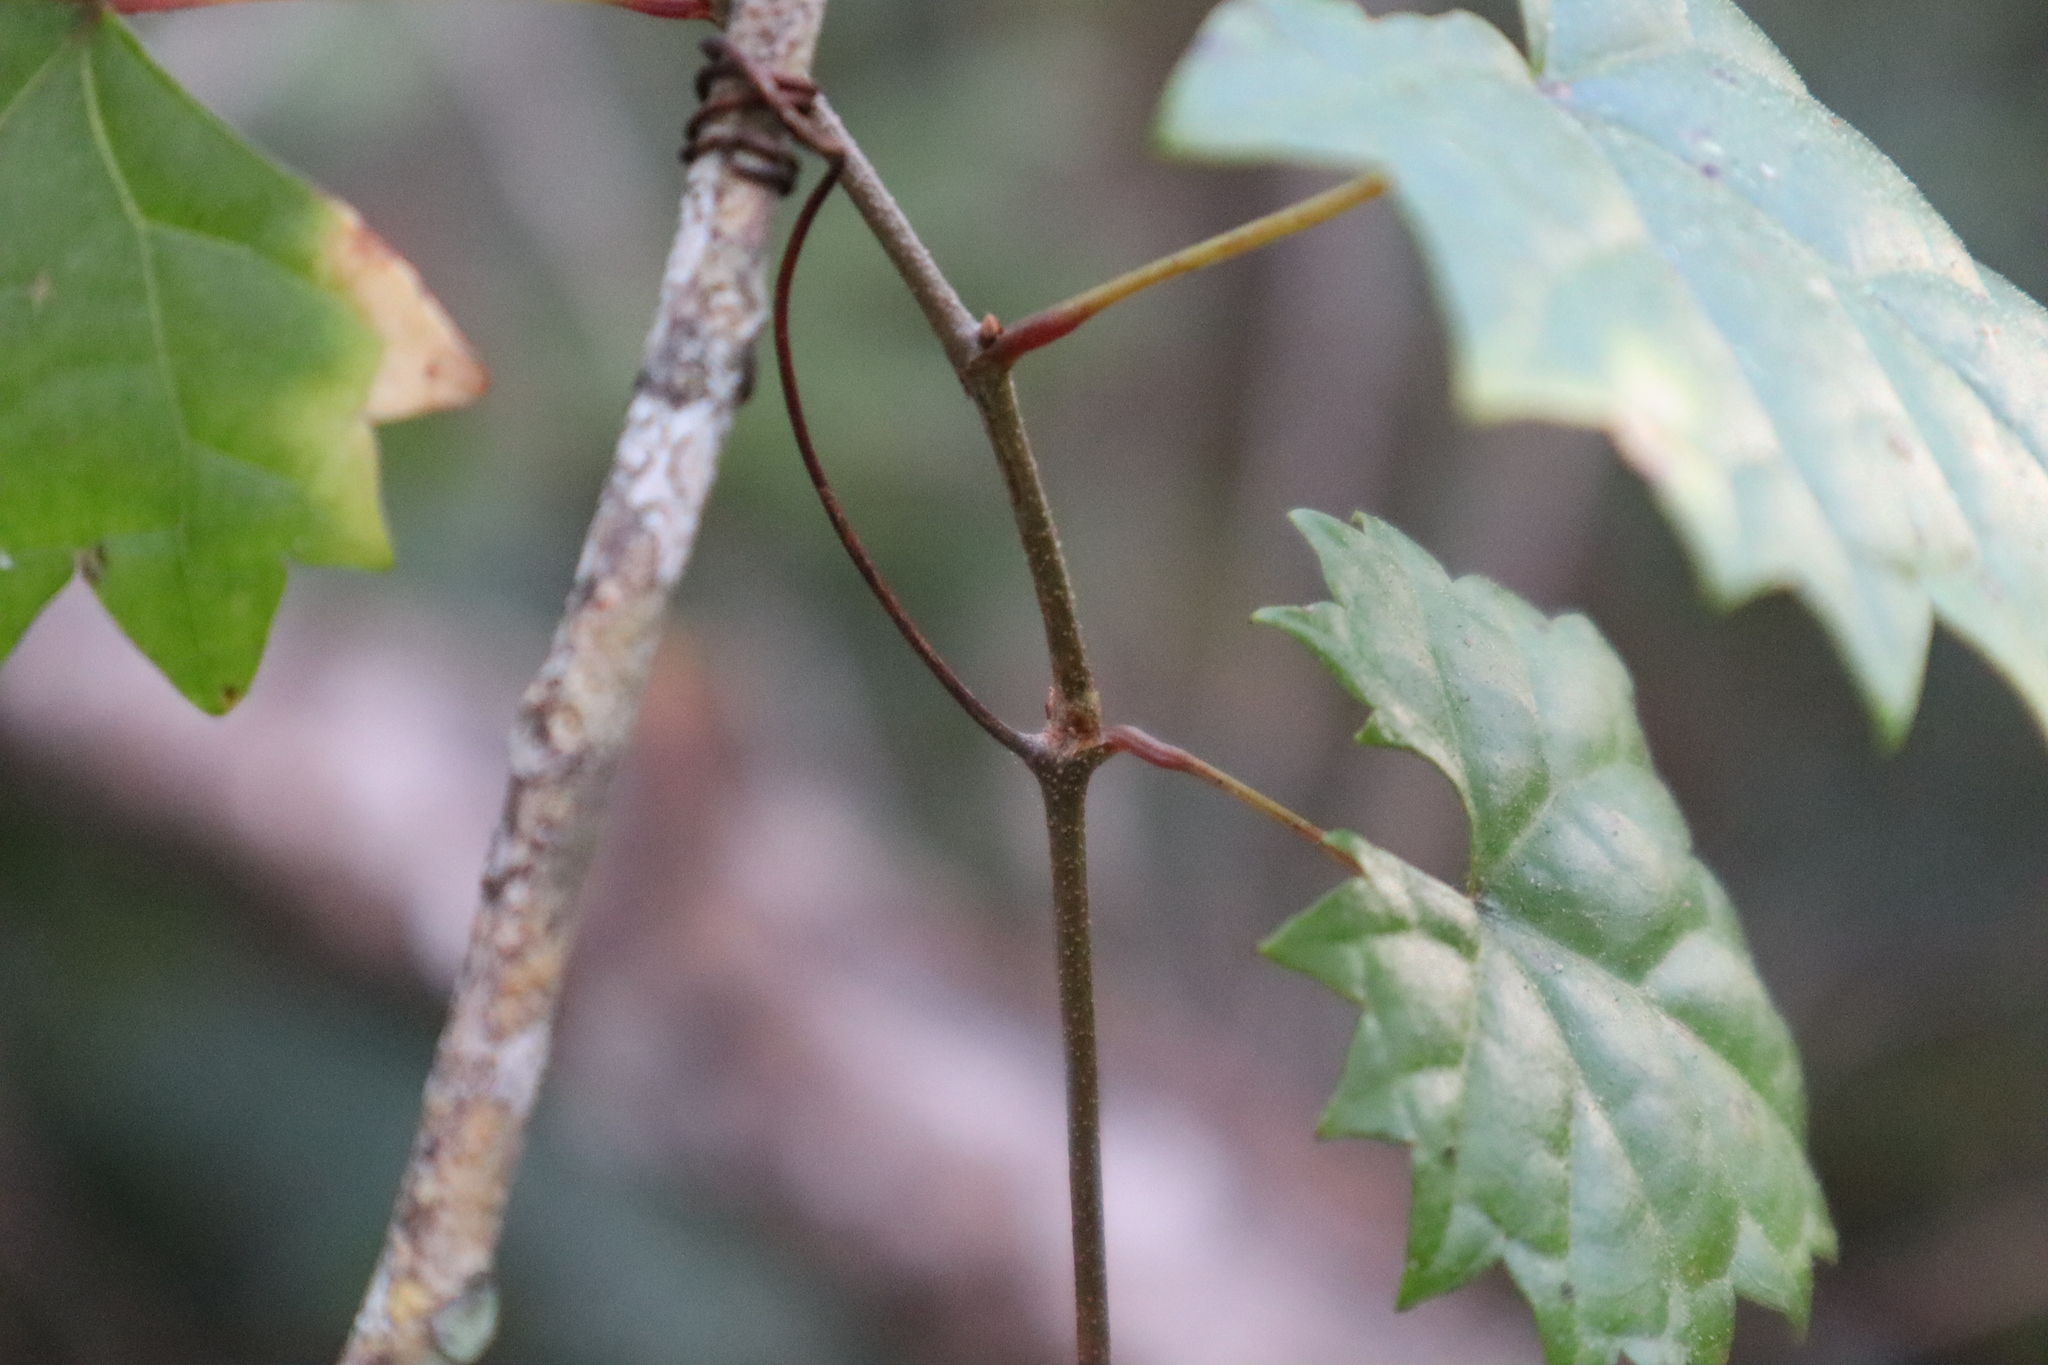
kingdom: Plantae
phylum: Tracheophyta
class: Magnoliopsida
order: Vitales
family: Vitaceae
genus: Vitis
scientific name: Vitis rotundifolia
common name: Muscadine grape
